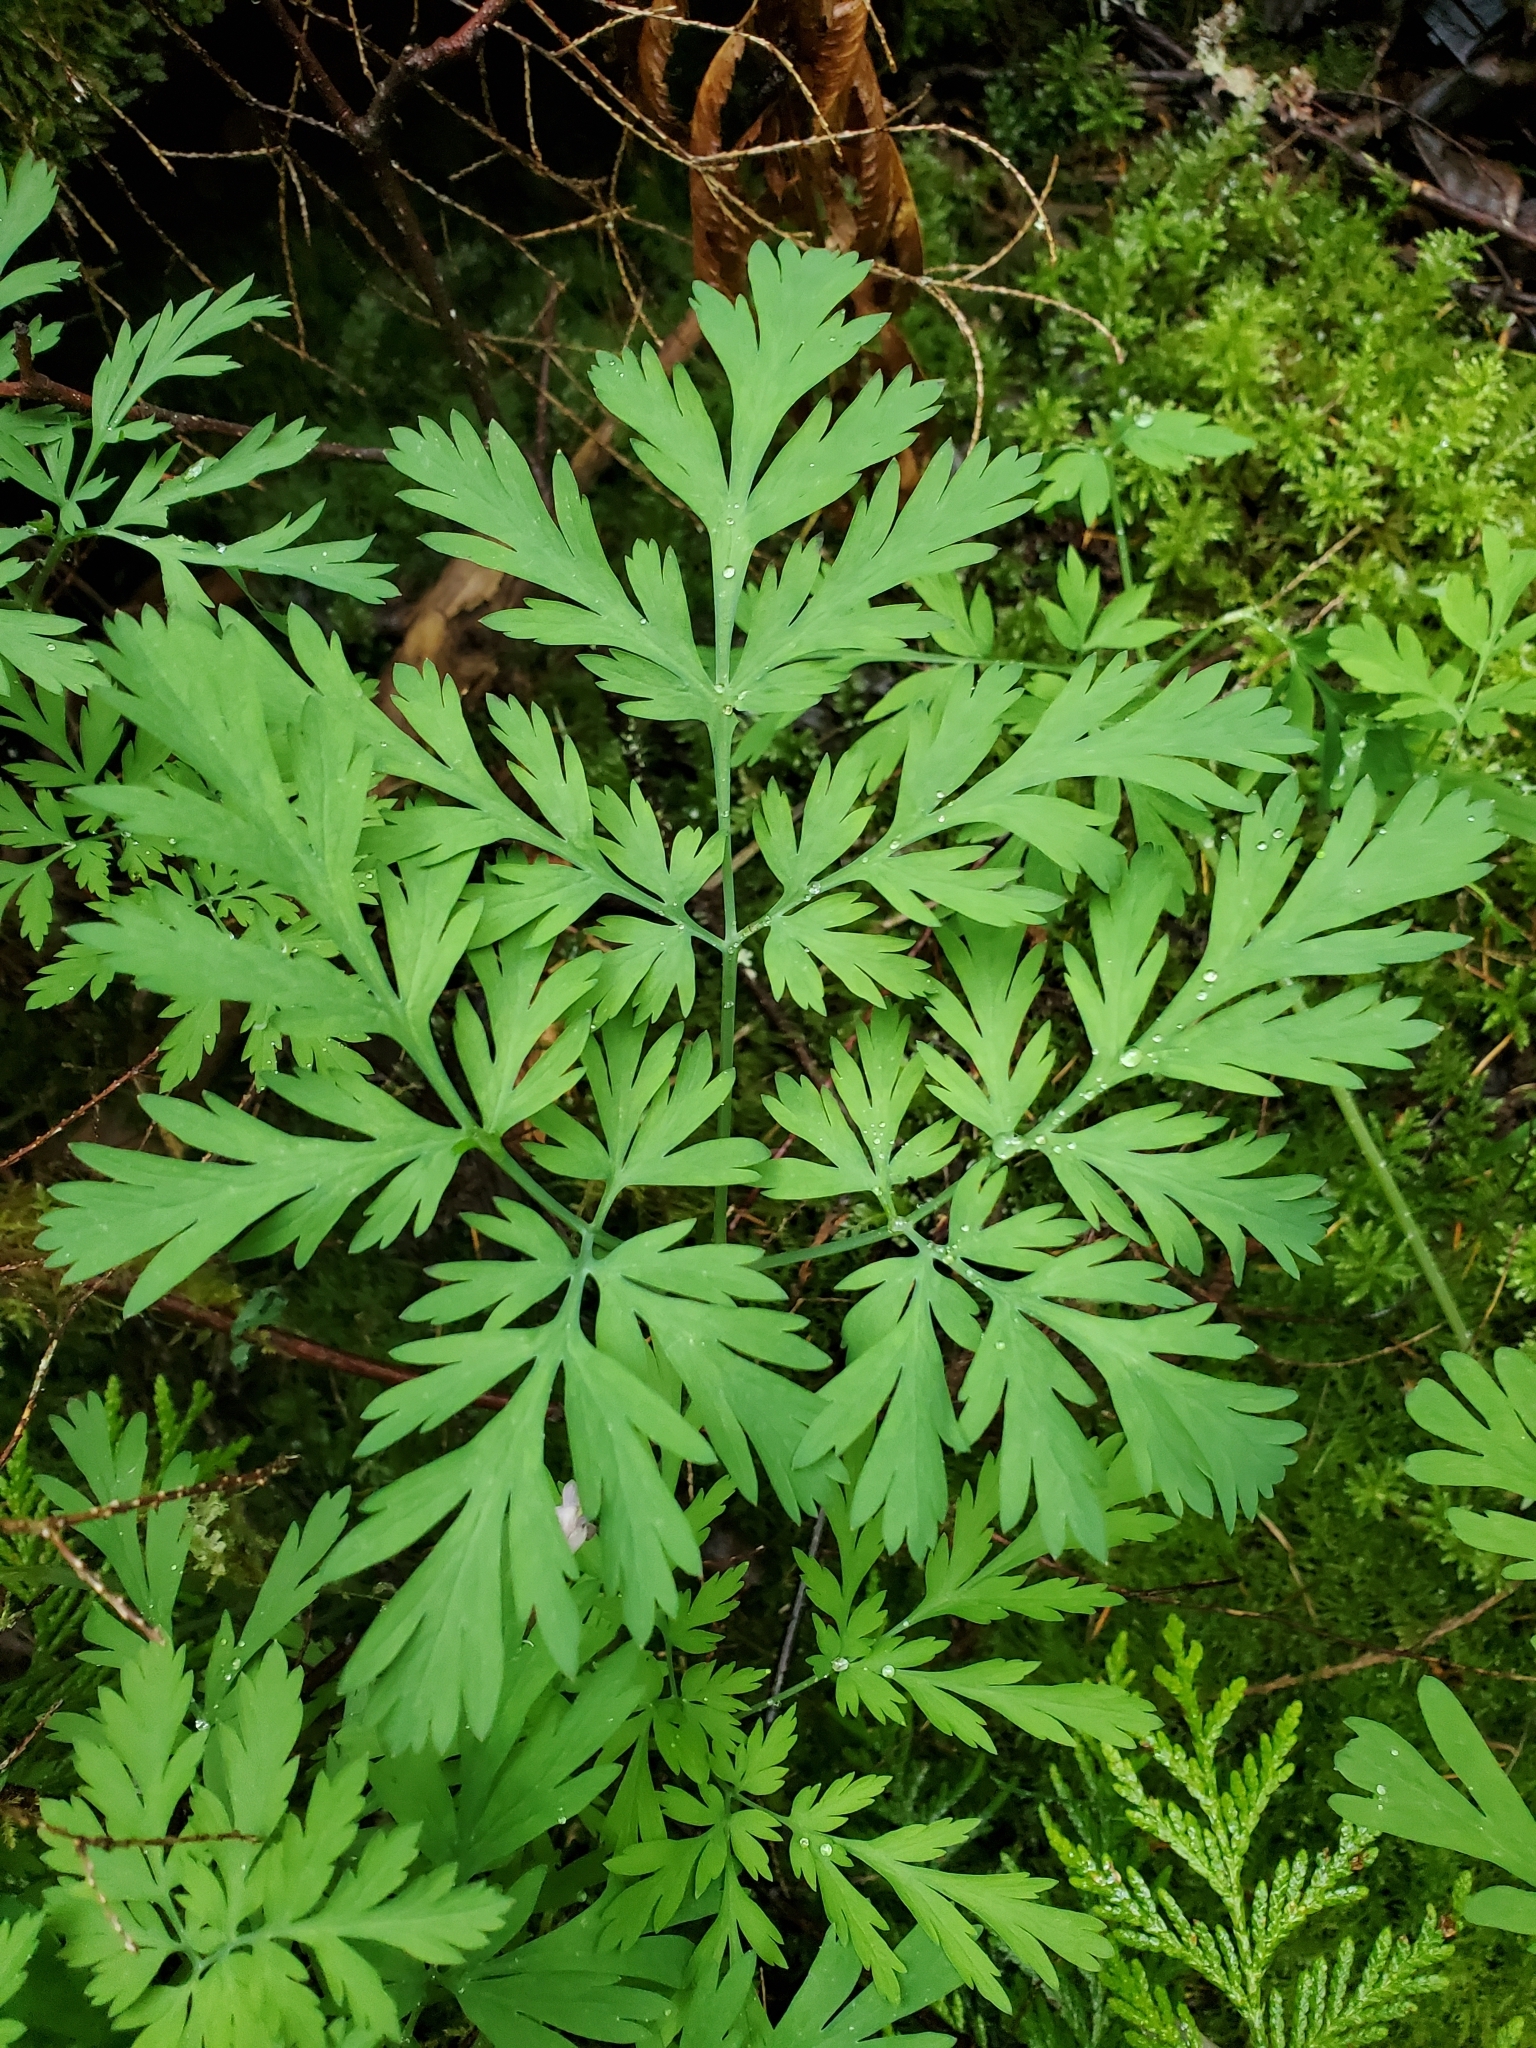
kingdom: Plantae
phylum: Tracheophyta
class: Magnoliopsida
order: Ranunculales
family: Papaveraceae
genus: Dicentra
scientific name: Dicentra formosa
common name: Bleeding-heart
